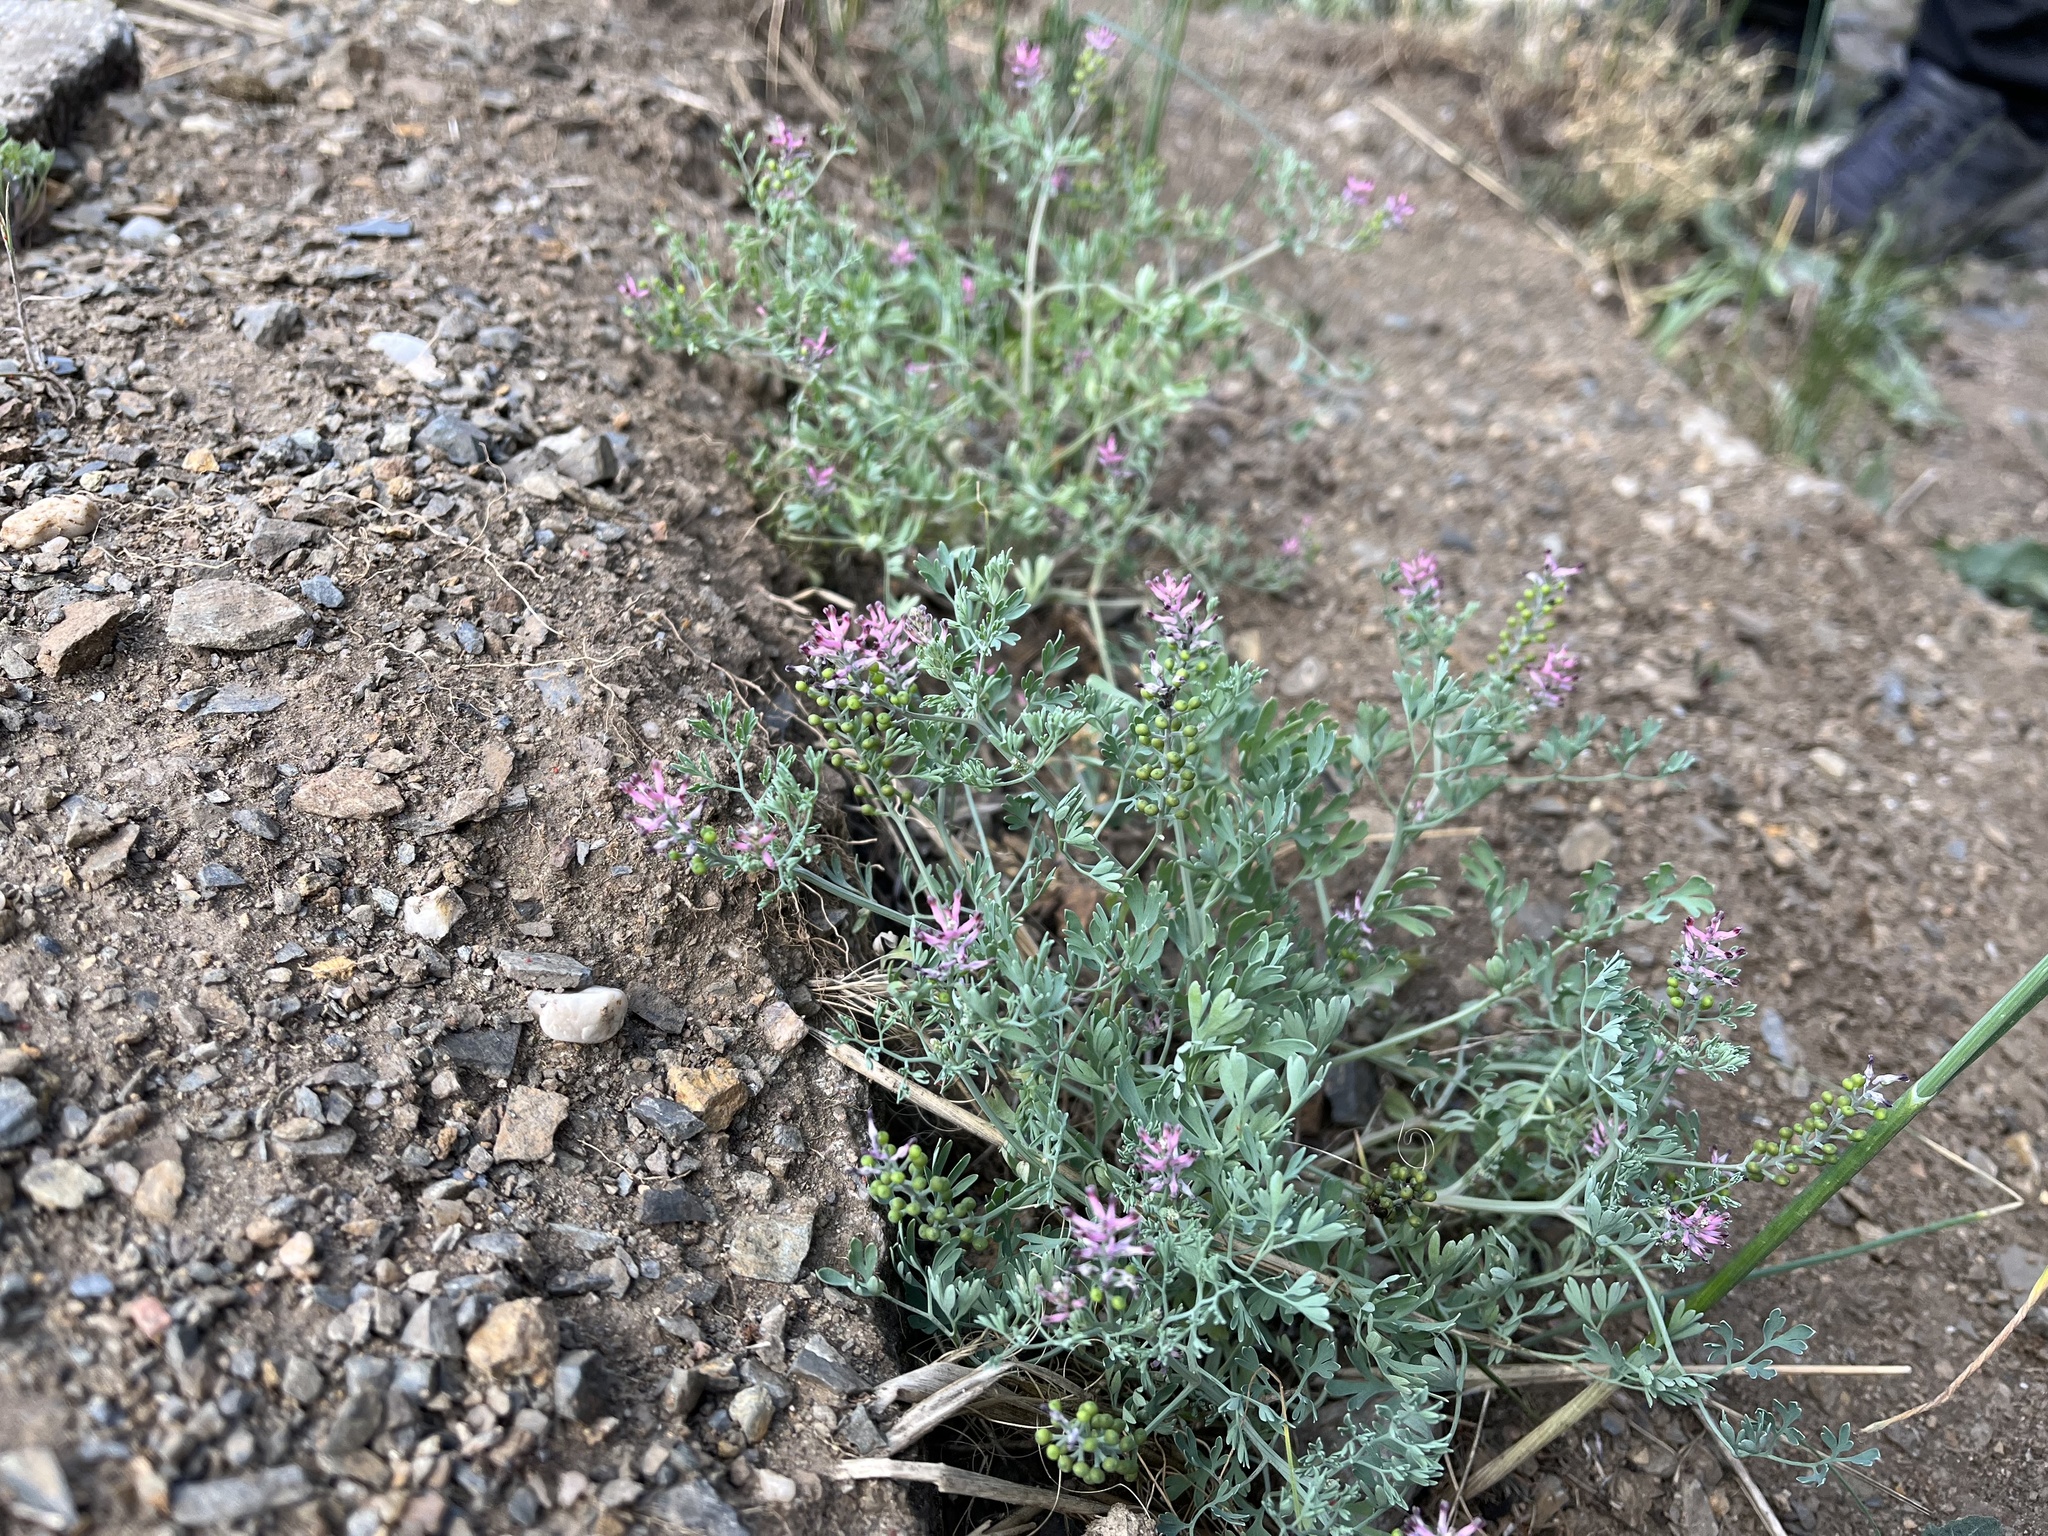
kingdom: Plantae
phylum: Tracheophyta
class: Magnoliopsida
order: Ranunculales
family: Papaveraceae
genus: Fumaria
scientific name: Fumaria schleicheri
